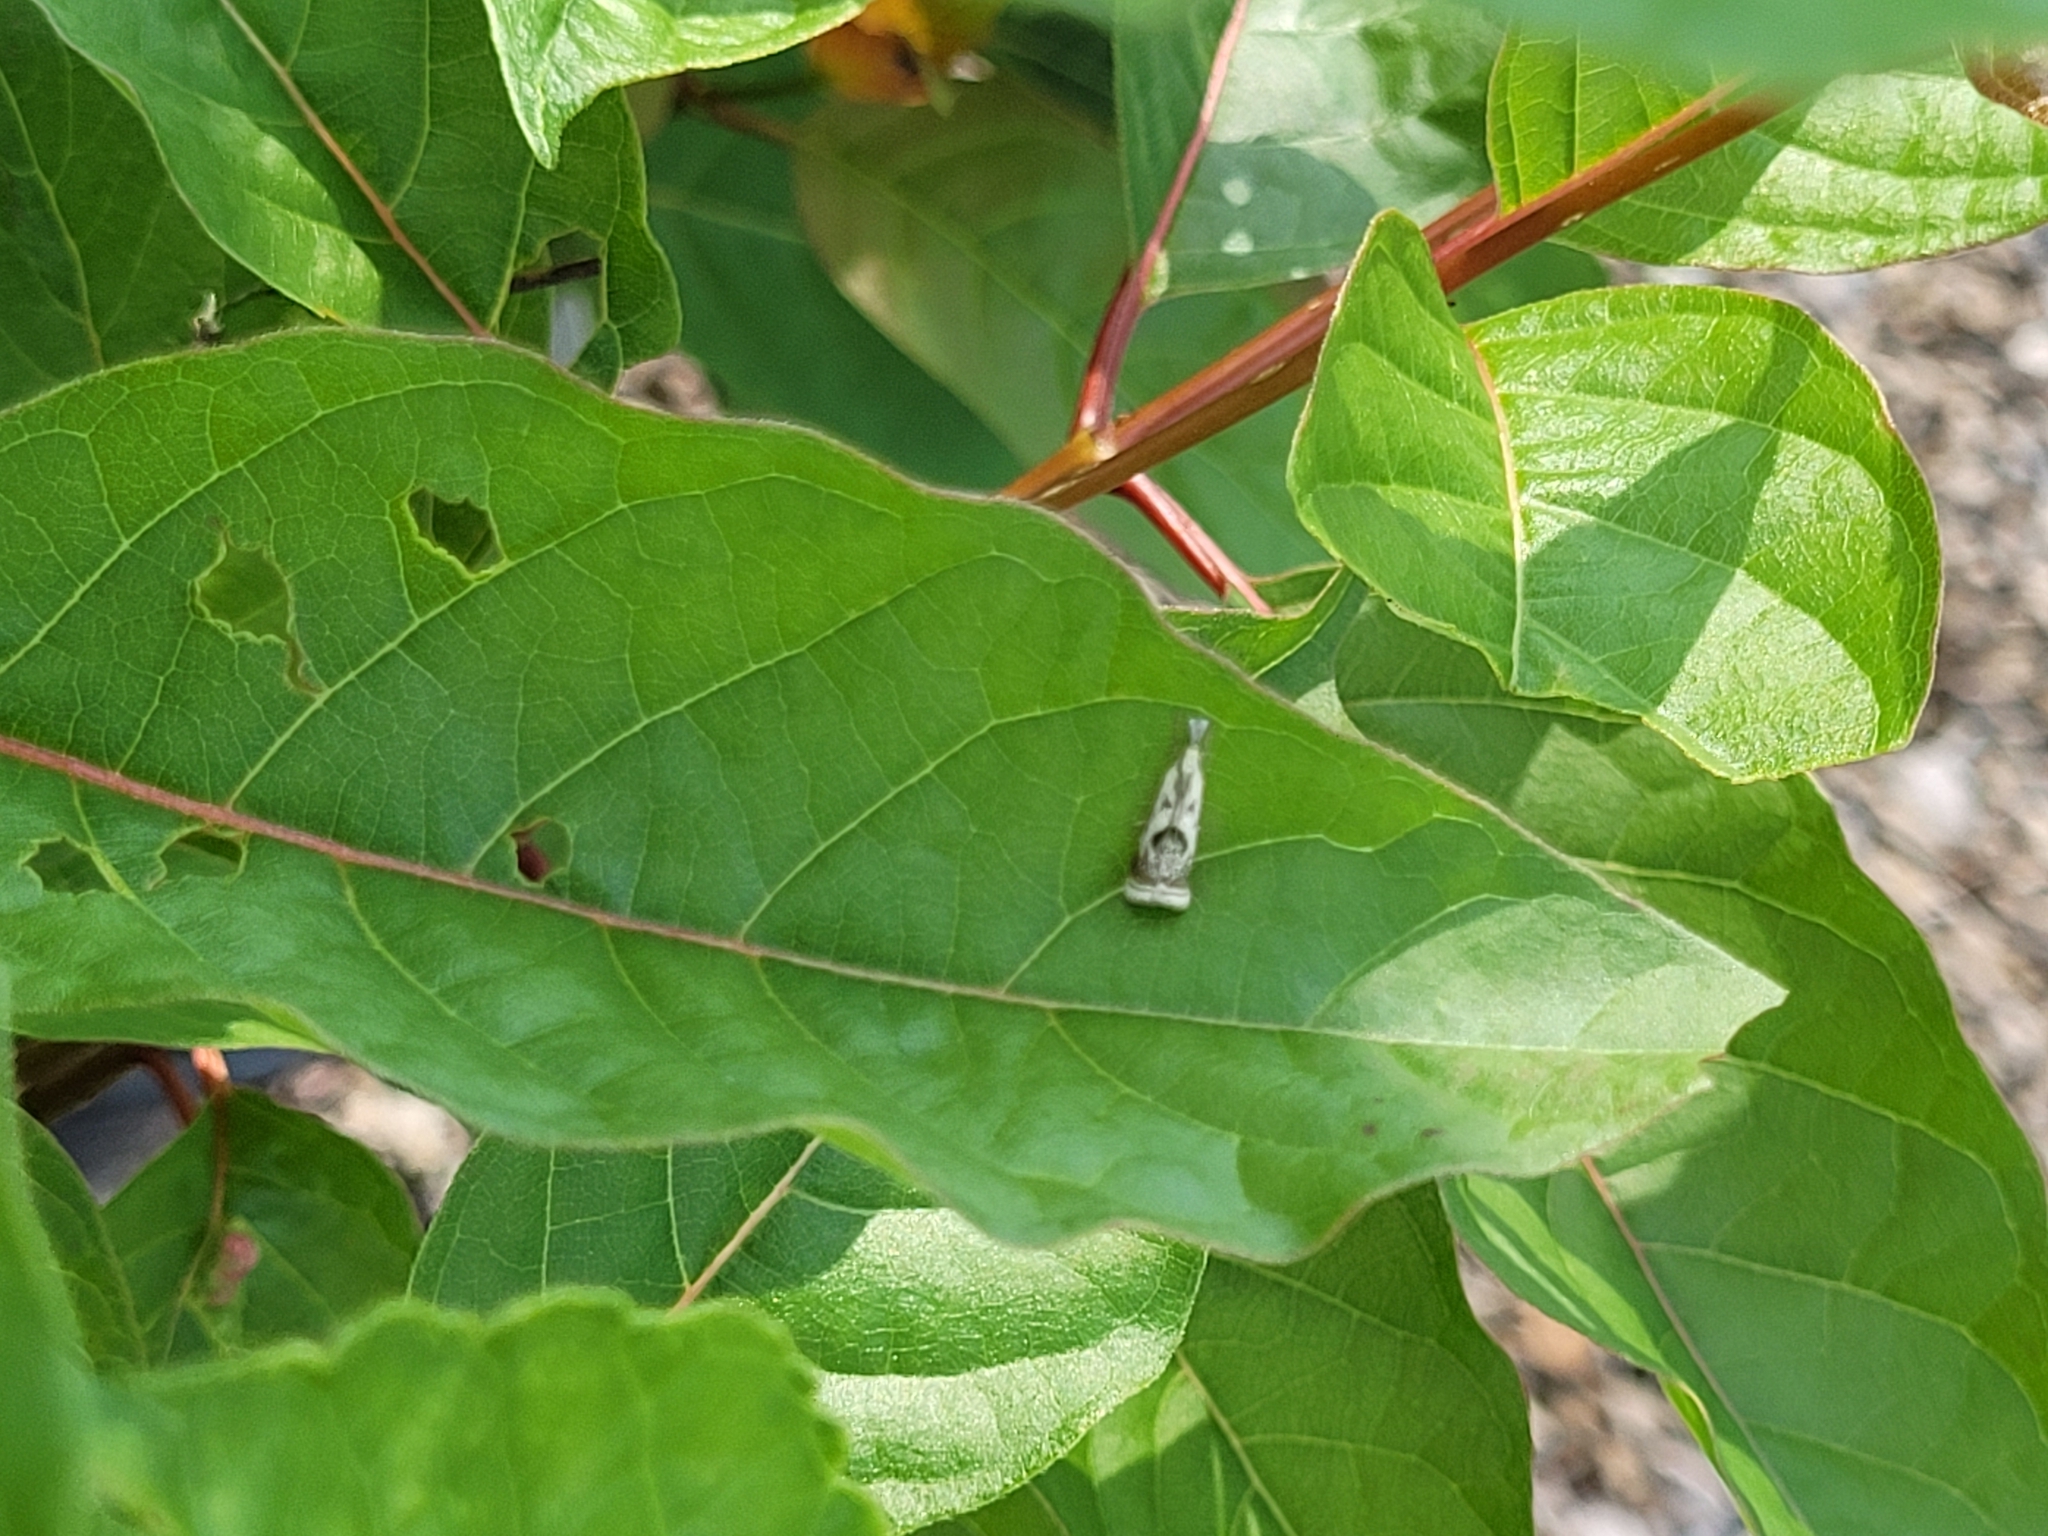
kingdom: Animalia
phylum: Arthropoda
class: Insecta
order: Lepidoptera
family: Crambidae
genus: Microcrambus
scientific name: Microcrambus elegans
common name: Elegant grass-veneer
